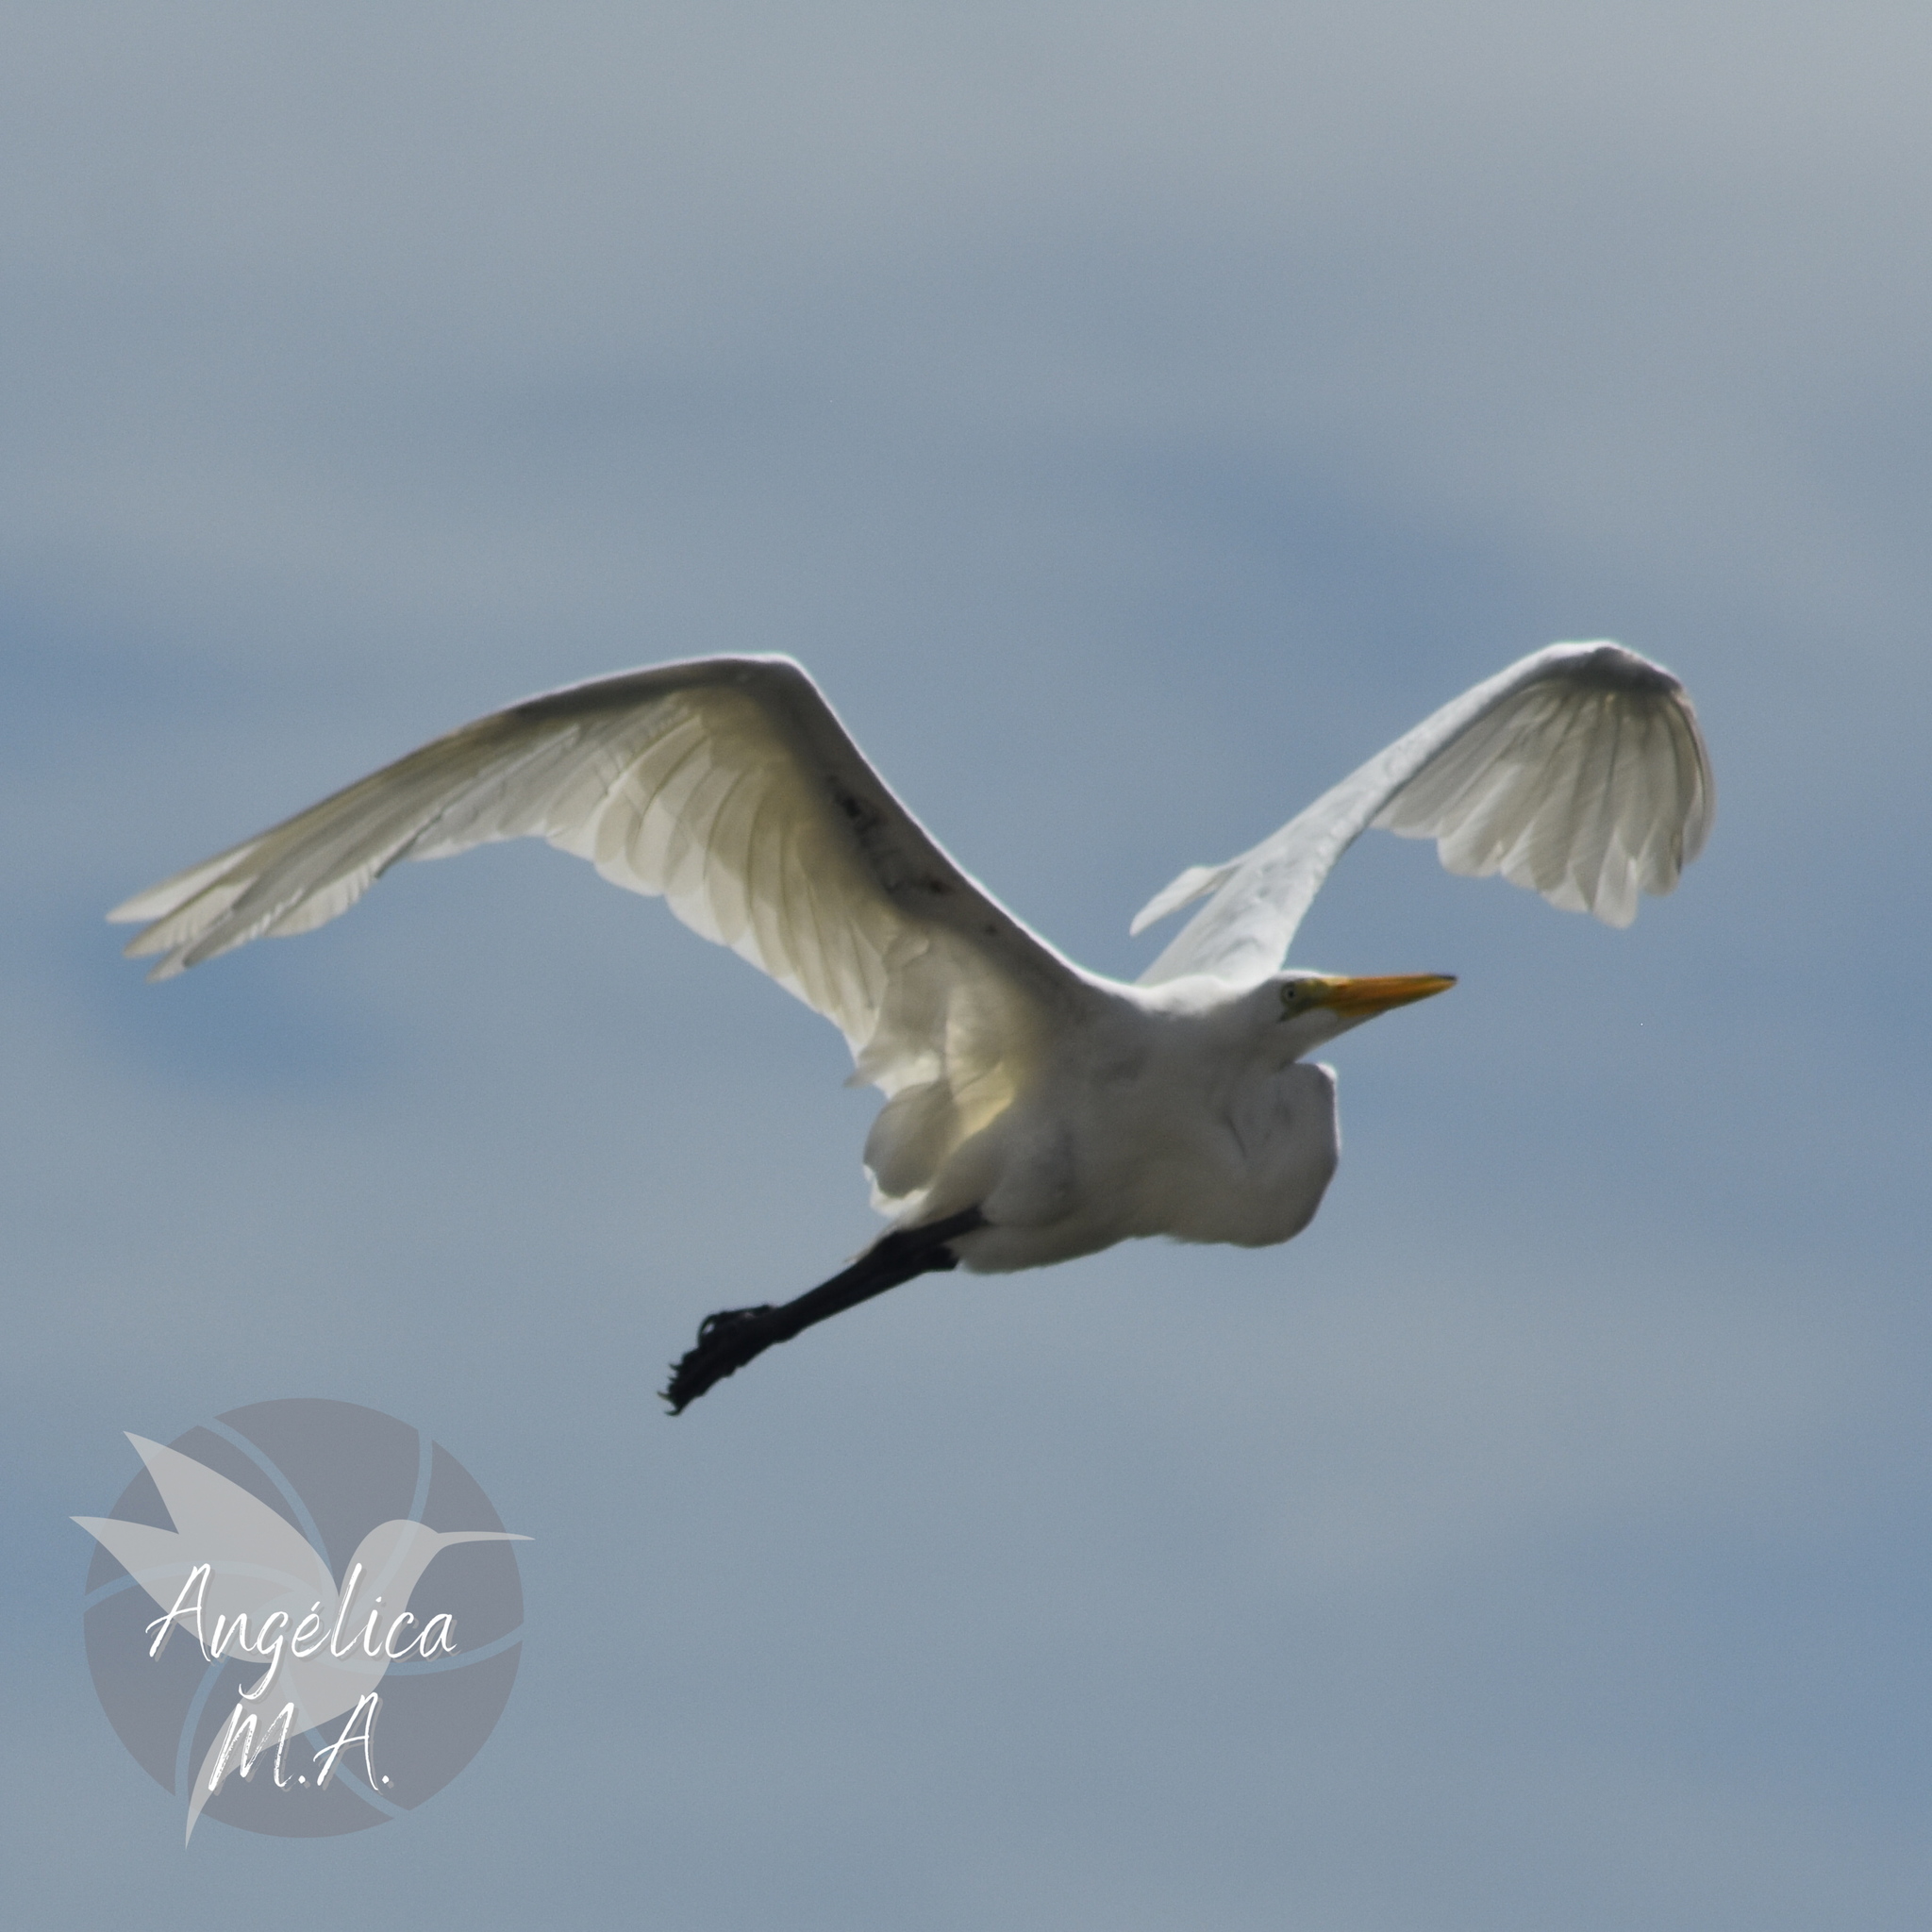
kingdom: Animalia
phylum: Chordata
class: Aves
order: Pelecaniformes
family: Ardeidae
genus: Ardea
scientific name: Ardea alba
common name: Great egret
